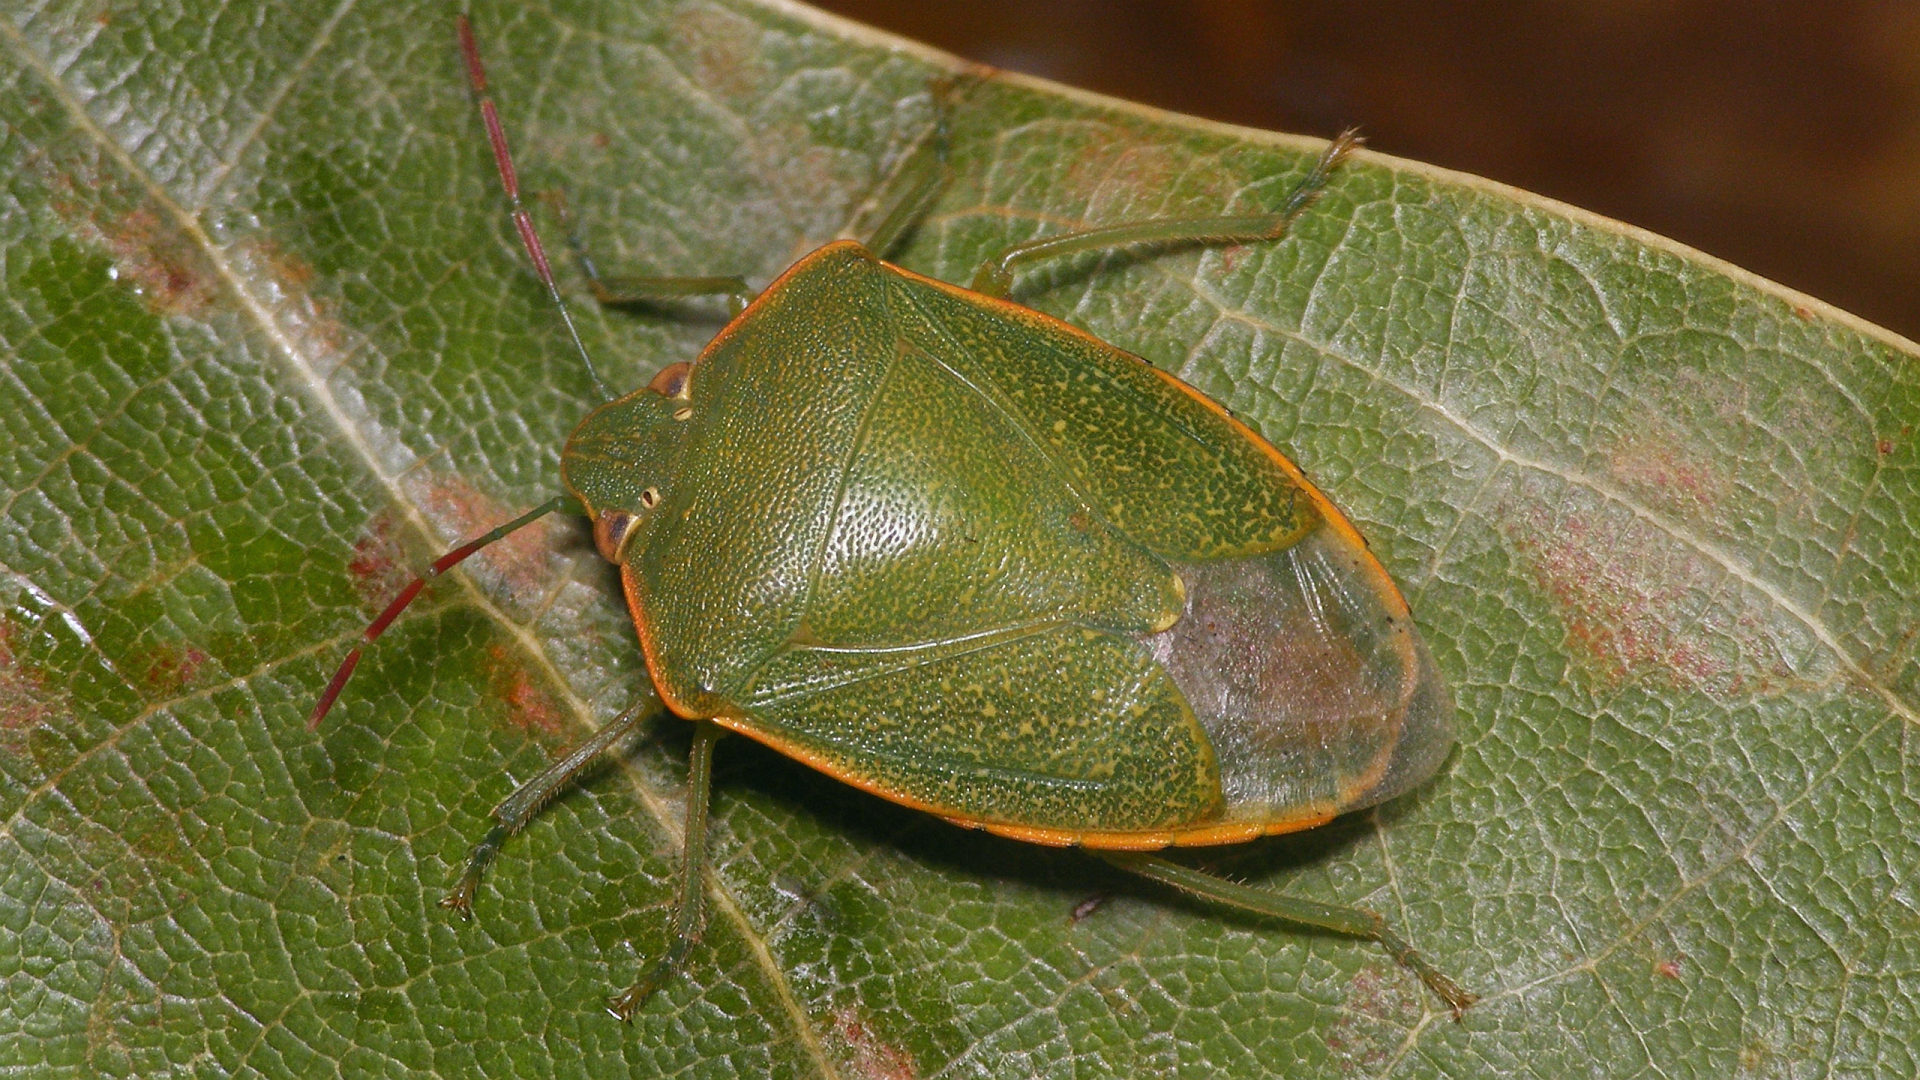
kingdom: Animalia
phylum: Arthropoda
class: Insecta
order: Hemiptera
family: Pentatomidae
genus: Acrosternum
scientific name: Acrosternum rubescens
